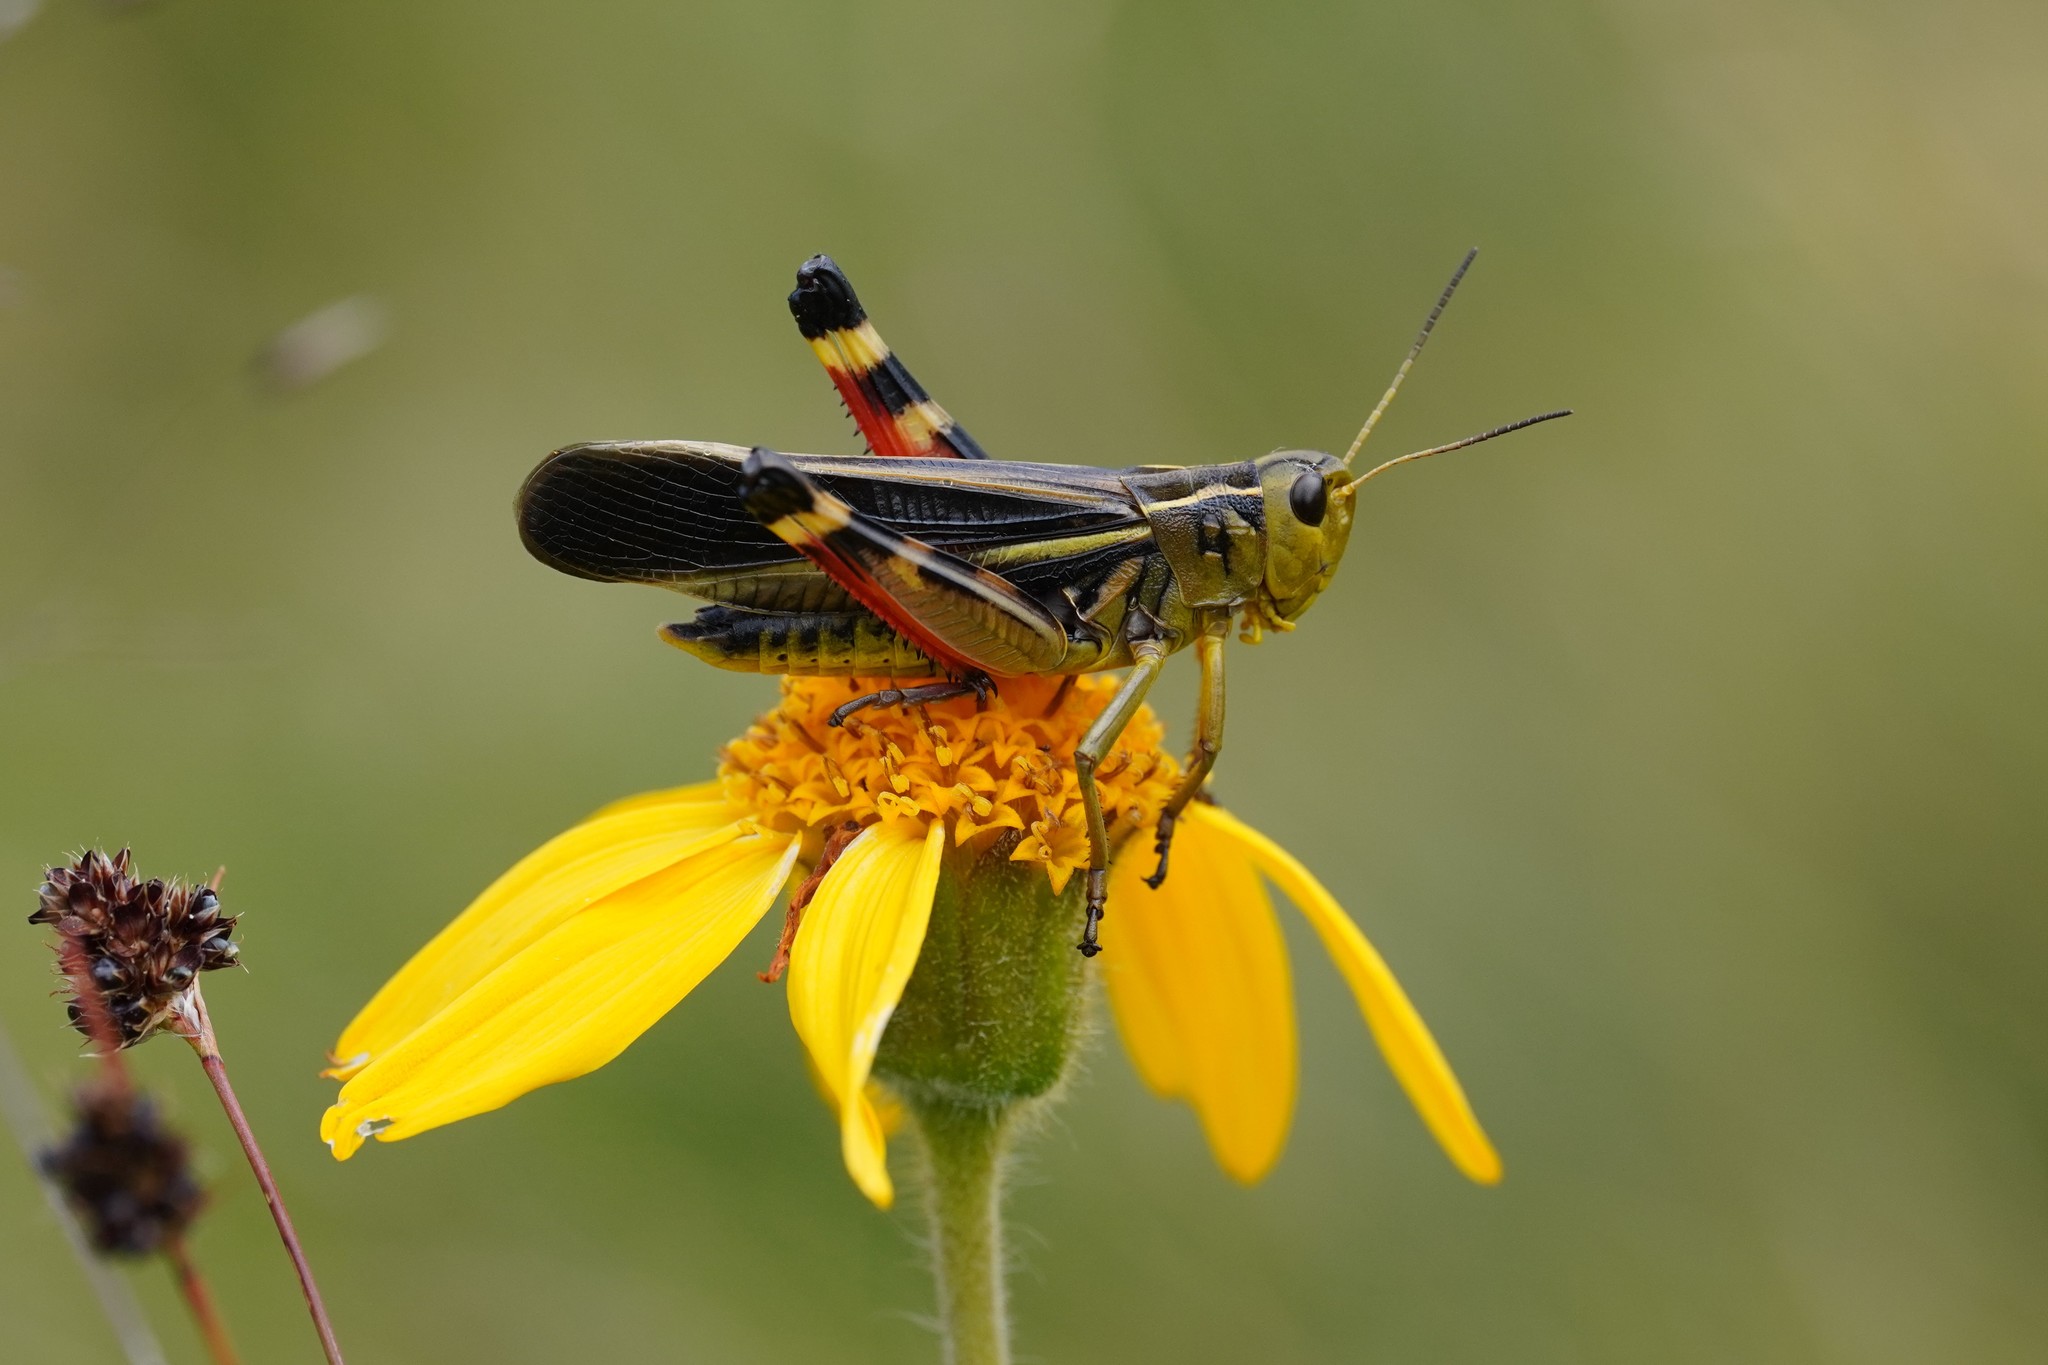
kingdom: Animalia
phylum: Arthropoda
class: Insecta
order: Orthoptera
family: Acrididae
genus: Arcyptera
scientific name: Arcyptera fusca
